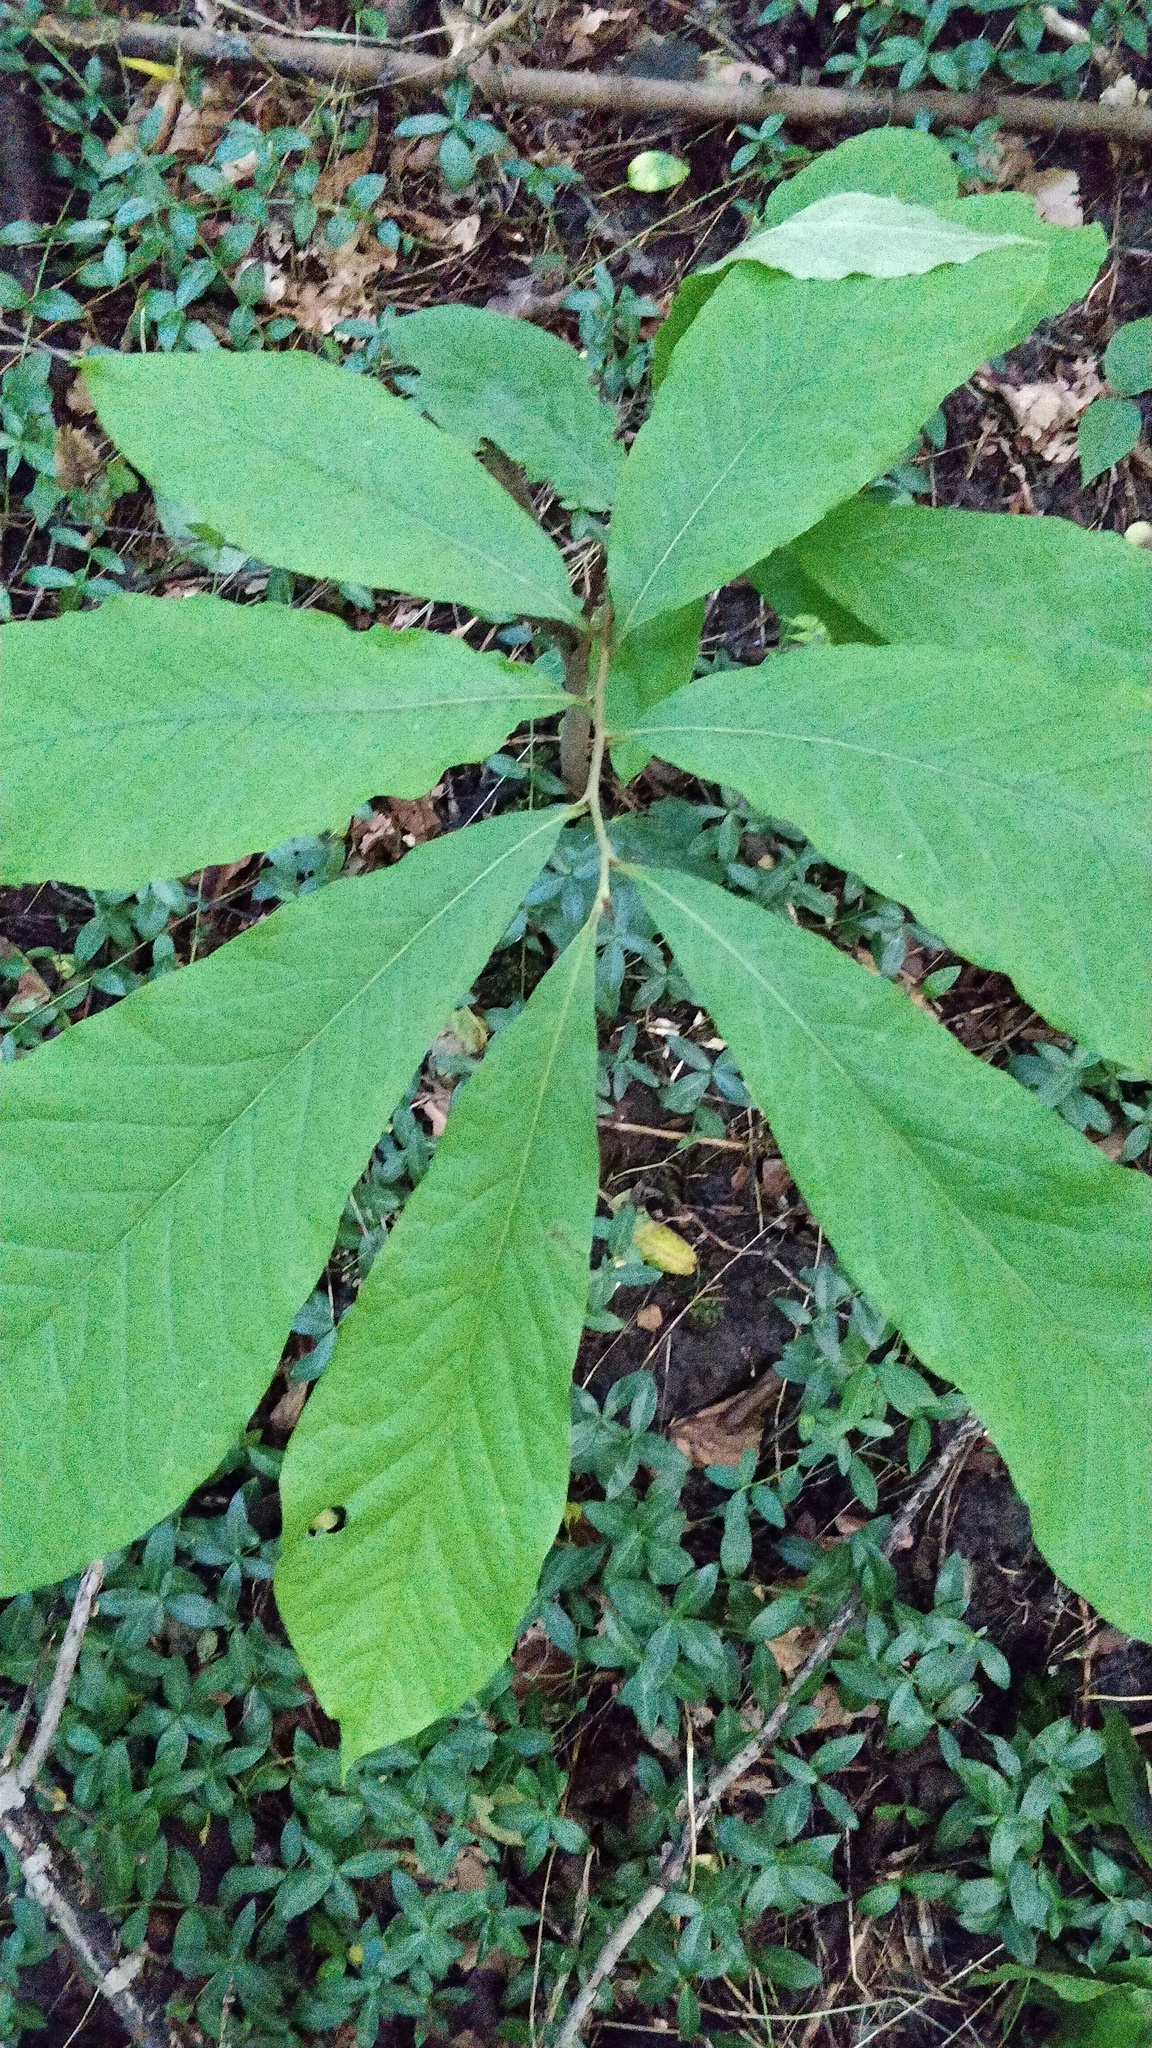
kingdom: Plantae
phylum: Tracheophyta
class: Magnoliopsida
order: Magnoliales
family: Annonaceae
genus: Asimina
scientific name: Asimina triloba
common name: Dog-banana
